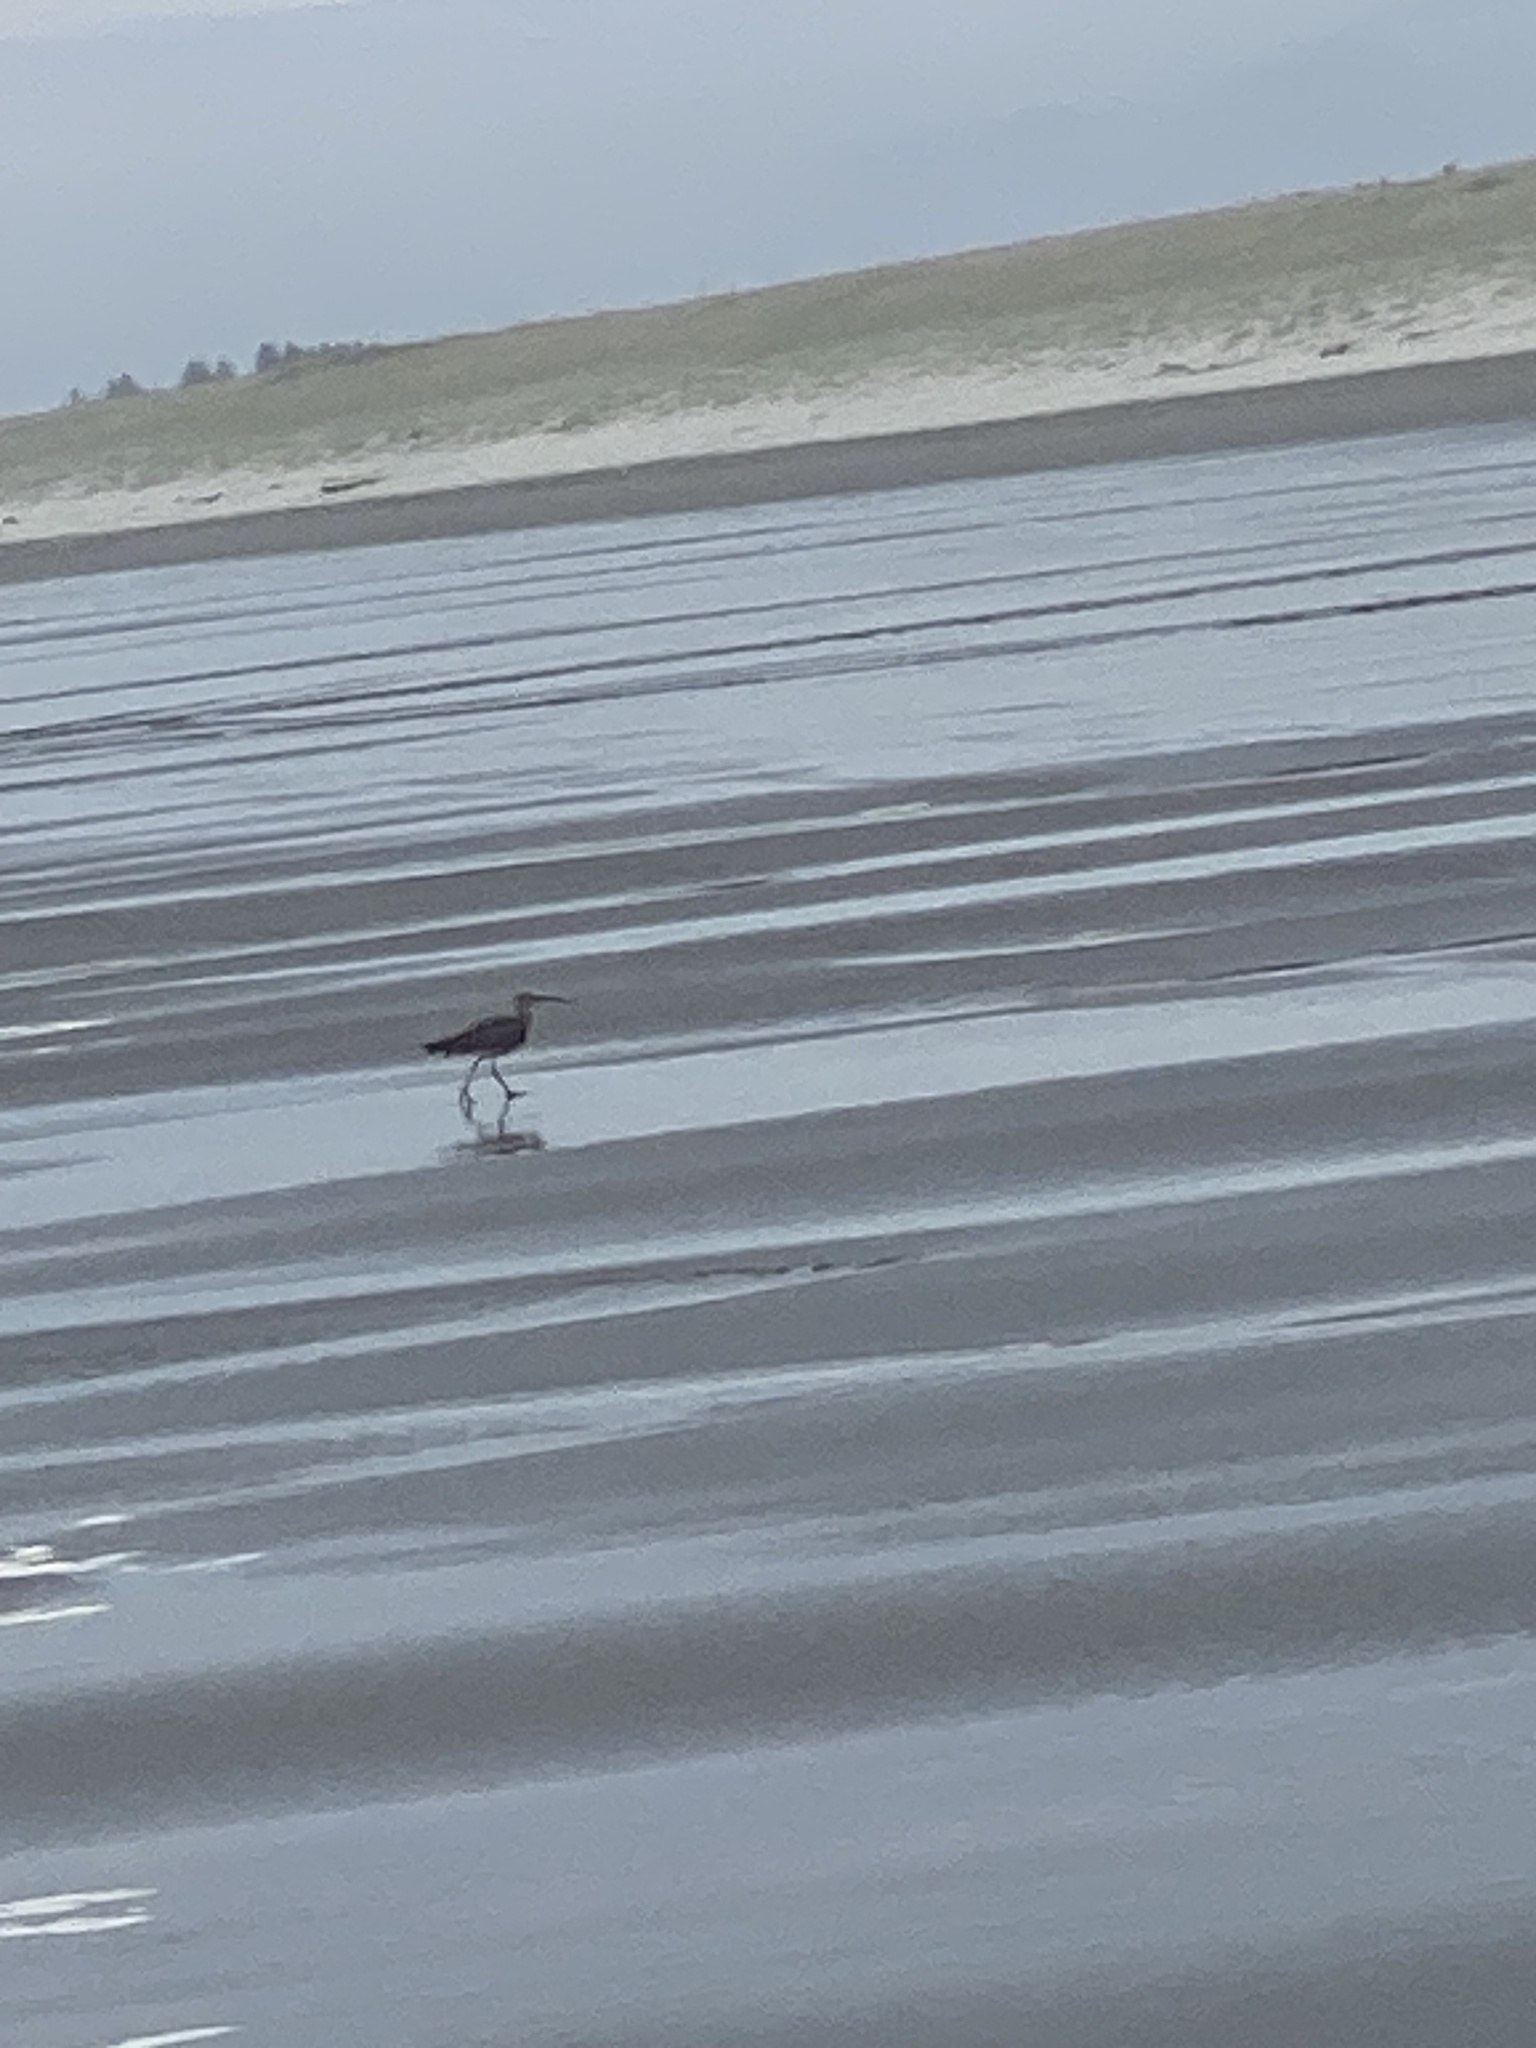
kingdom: Animalia
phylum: Chordata
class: Aves
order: Charadriiformes
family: Scolopacidae
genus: Numenius
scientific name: Numenius phaeopus
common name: Whimbrel
